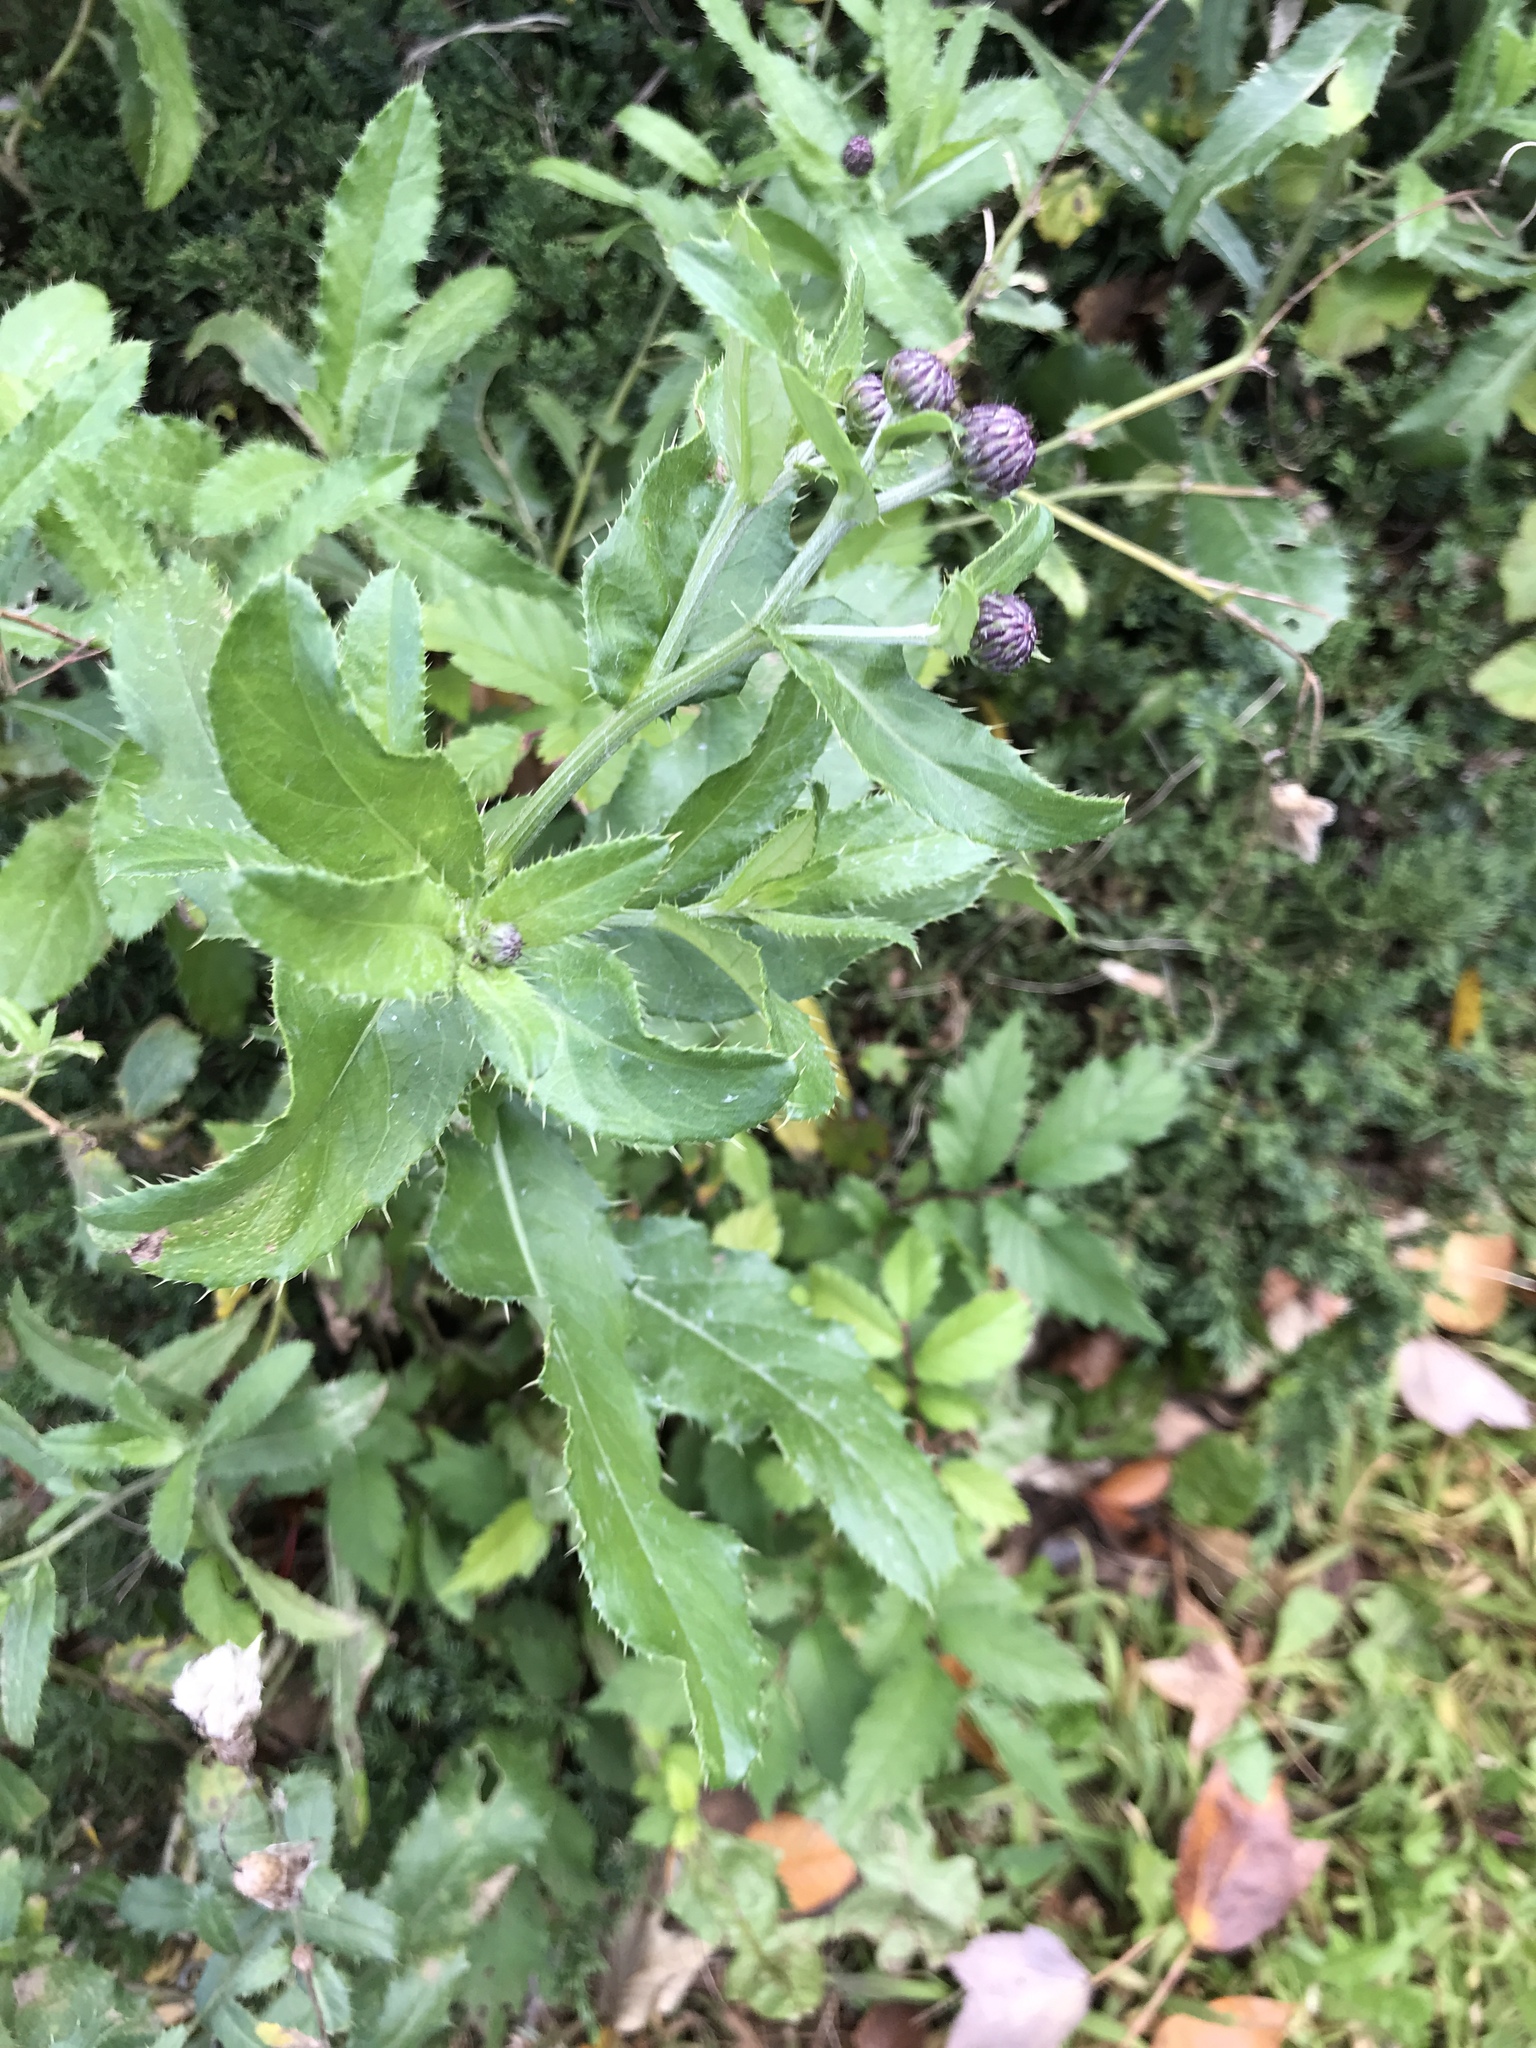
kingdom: Plantae
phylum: Tracheophyta
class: Magnoliopsida
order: Asterales
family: Asteraceae
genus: Cirsium
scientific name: Cirsium arvense
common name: Creeping thistle
